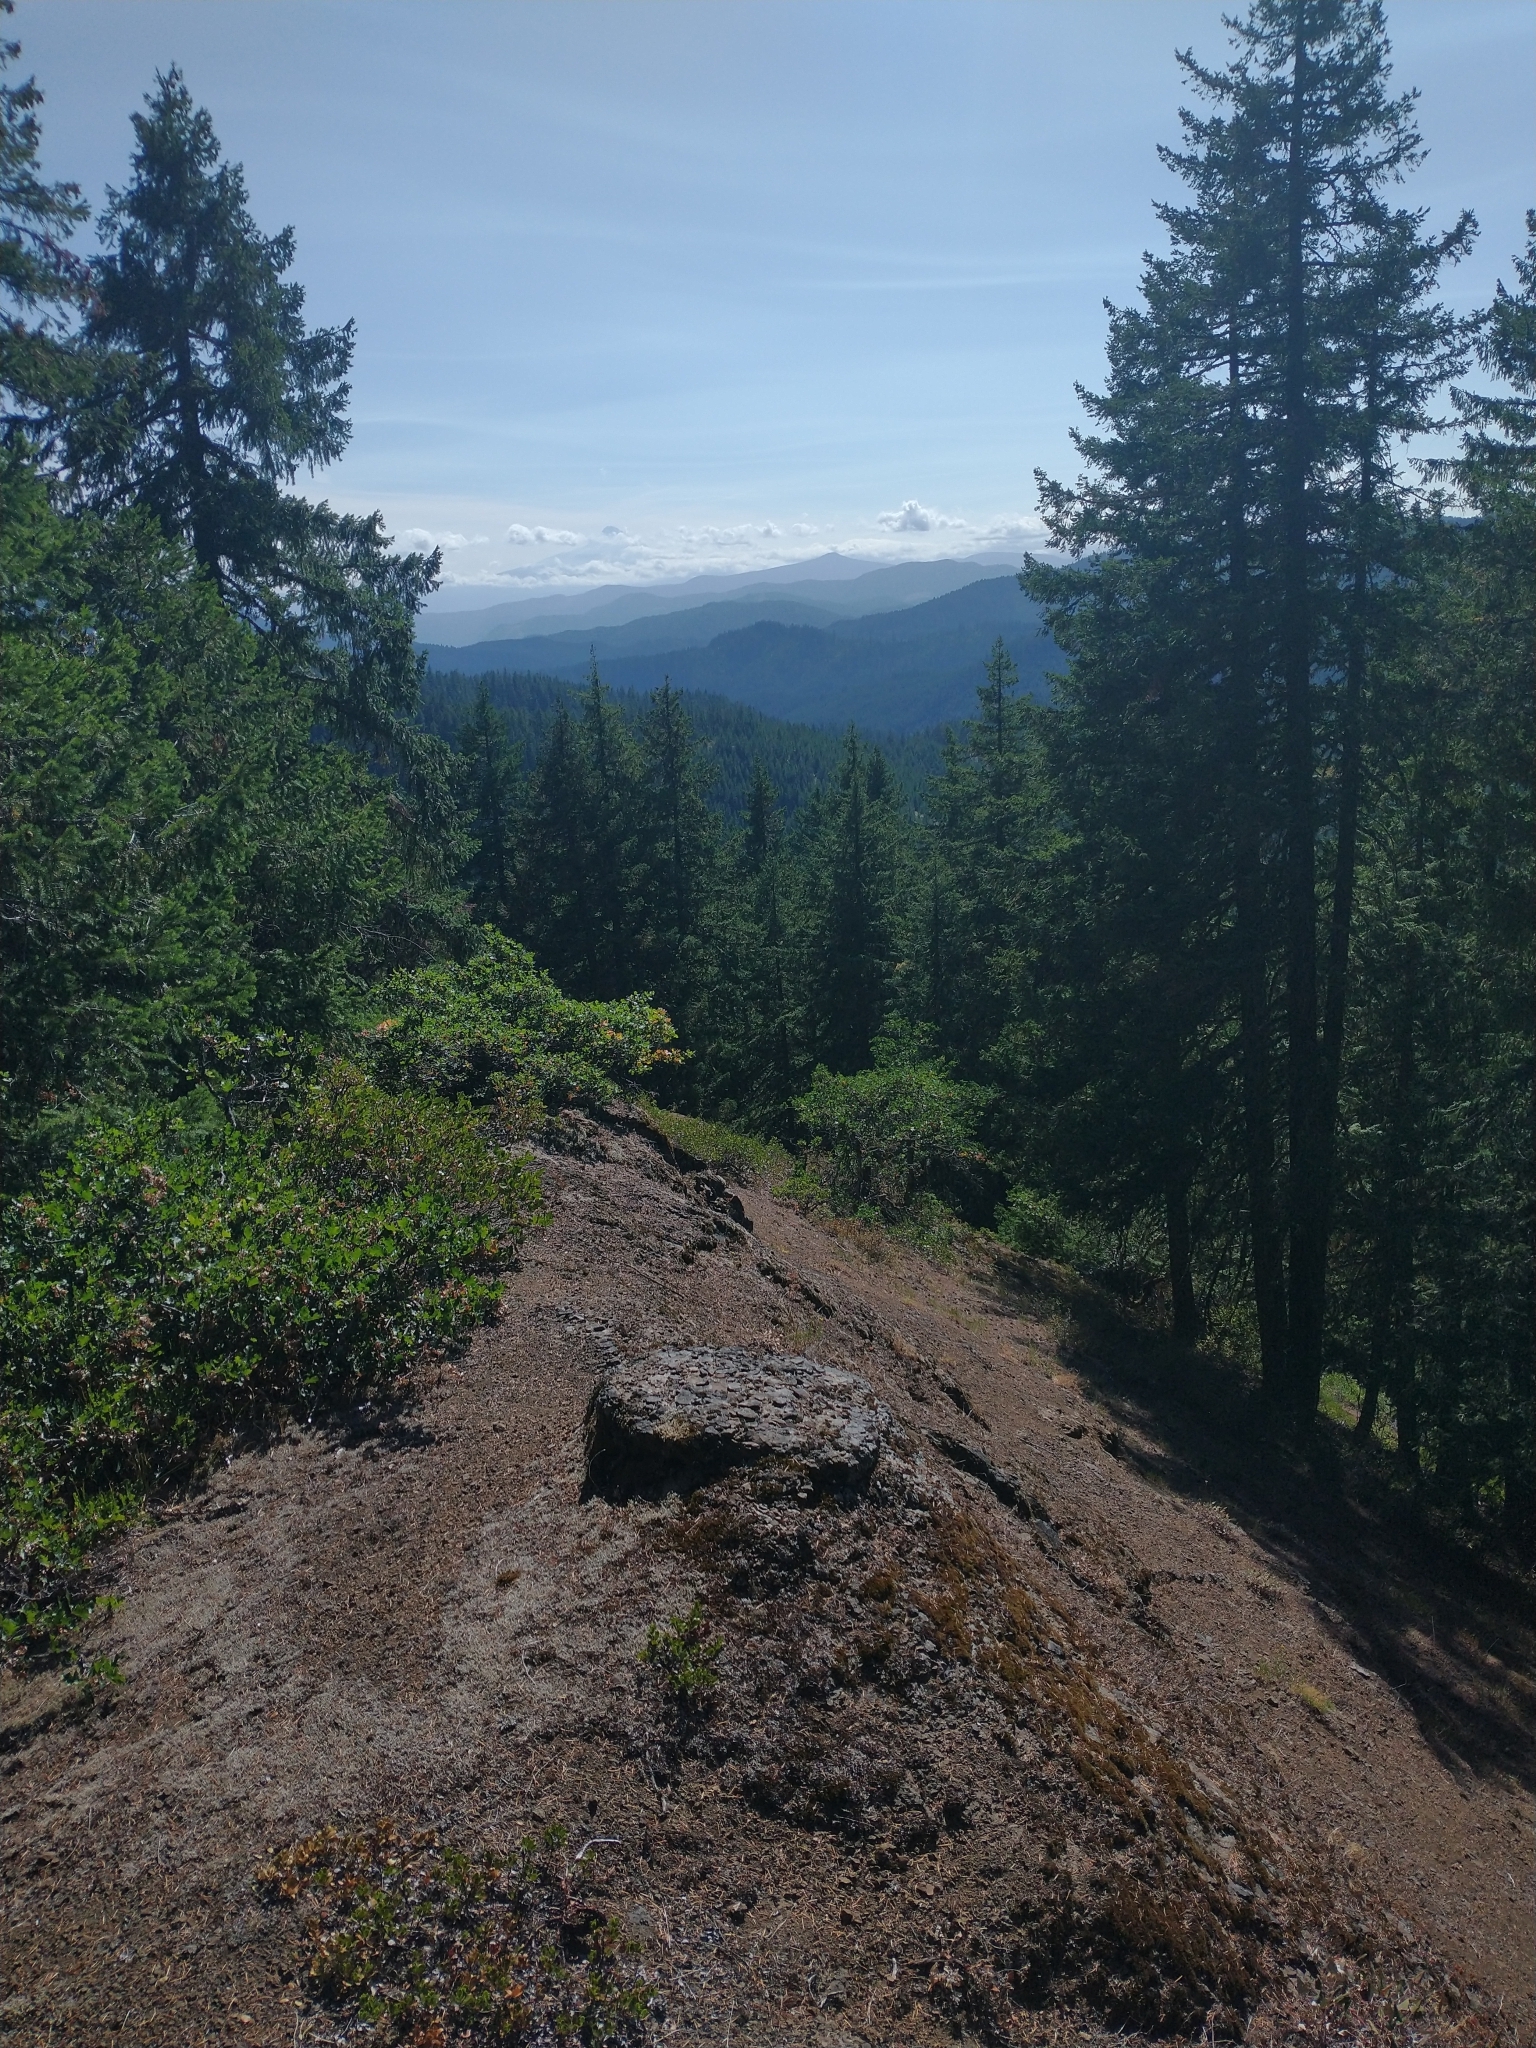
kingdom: Plantae
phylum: Tracheophyta
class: Magnoliopsida
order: Fagales
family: Fagaceae
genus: Quercus
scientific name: Quercus garryana
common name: Garry oak
